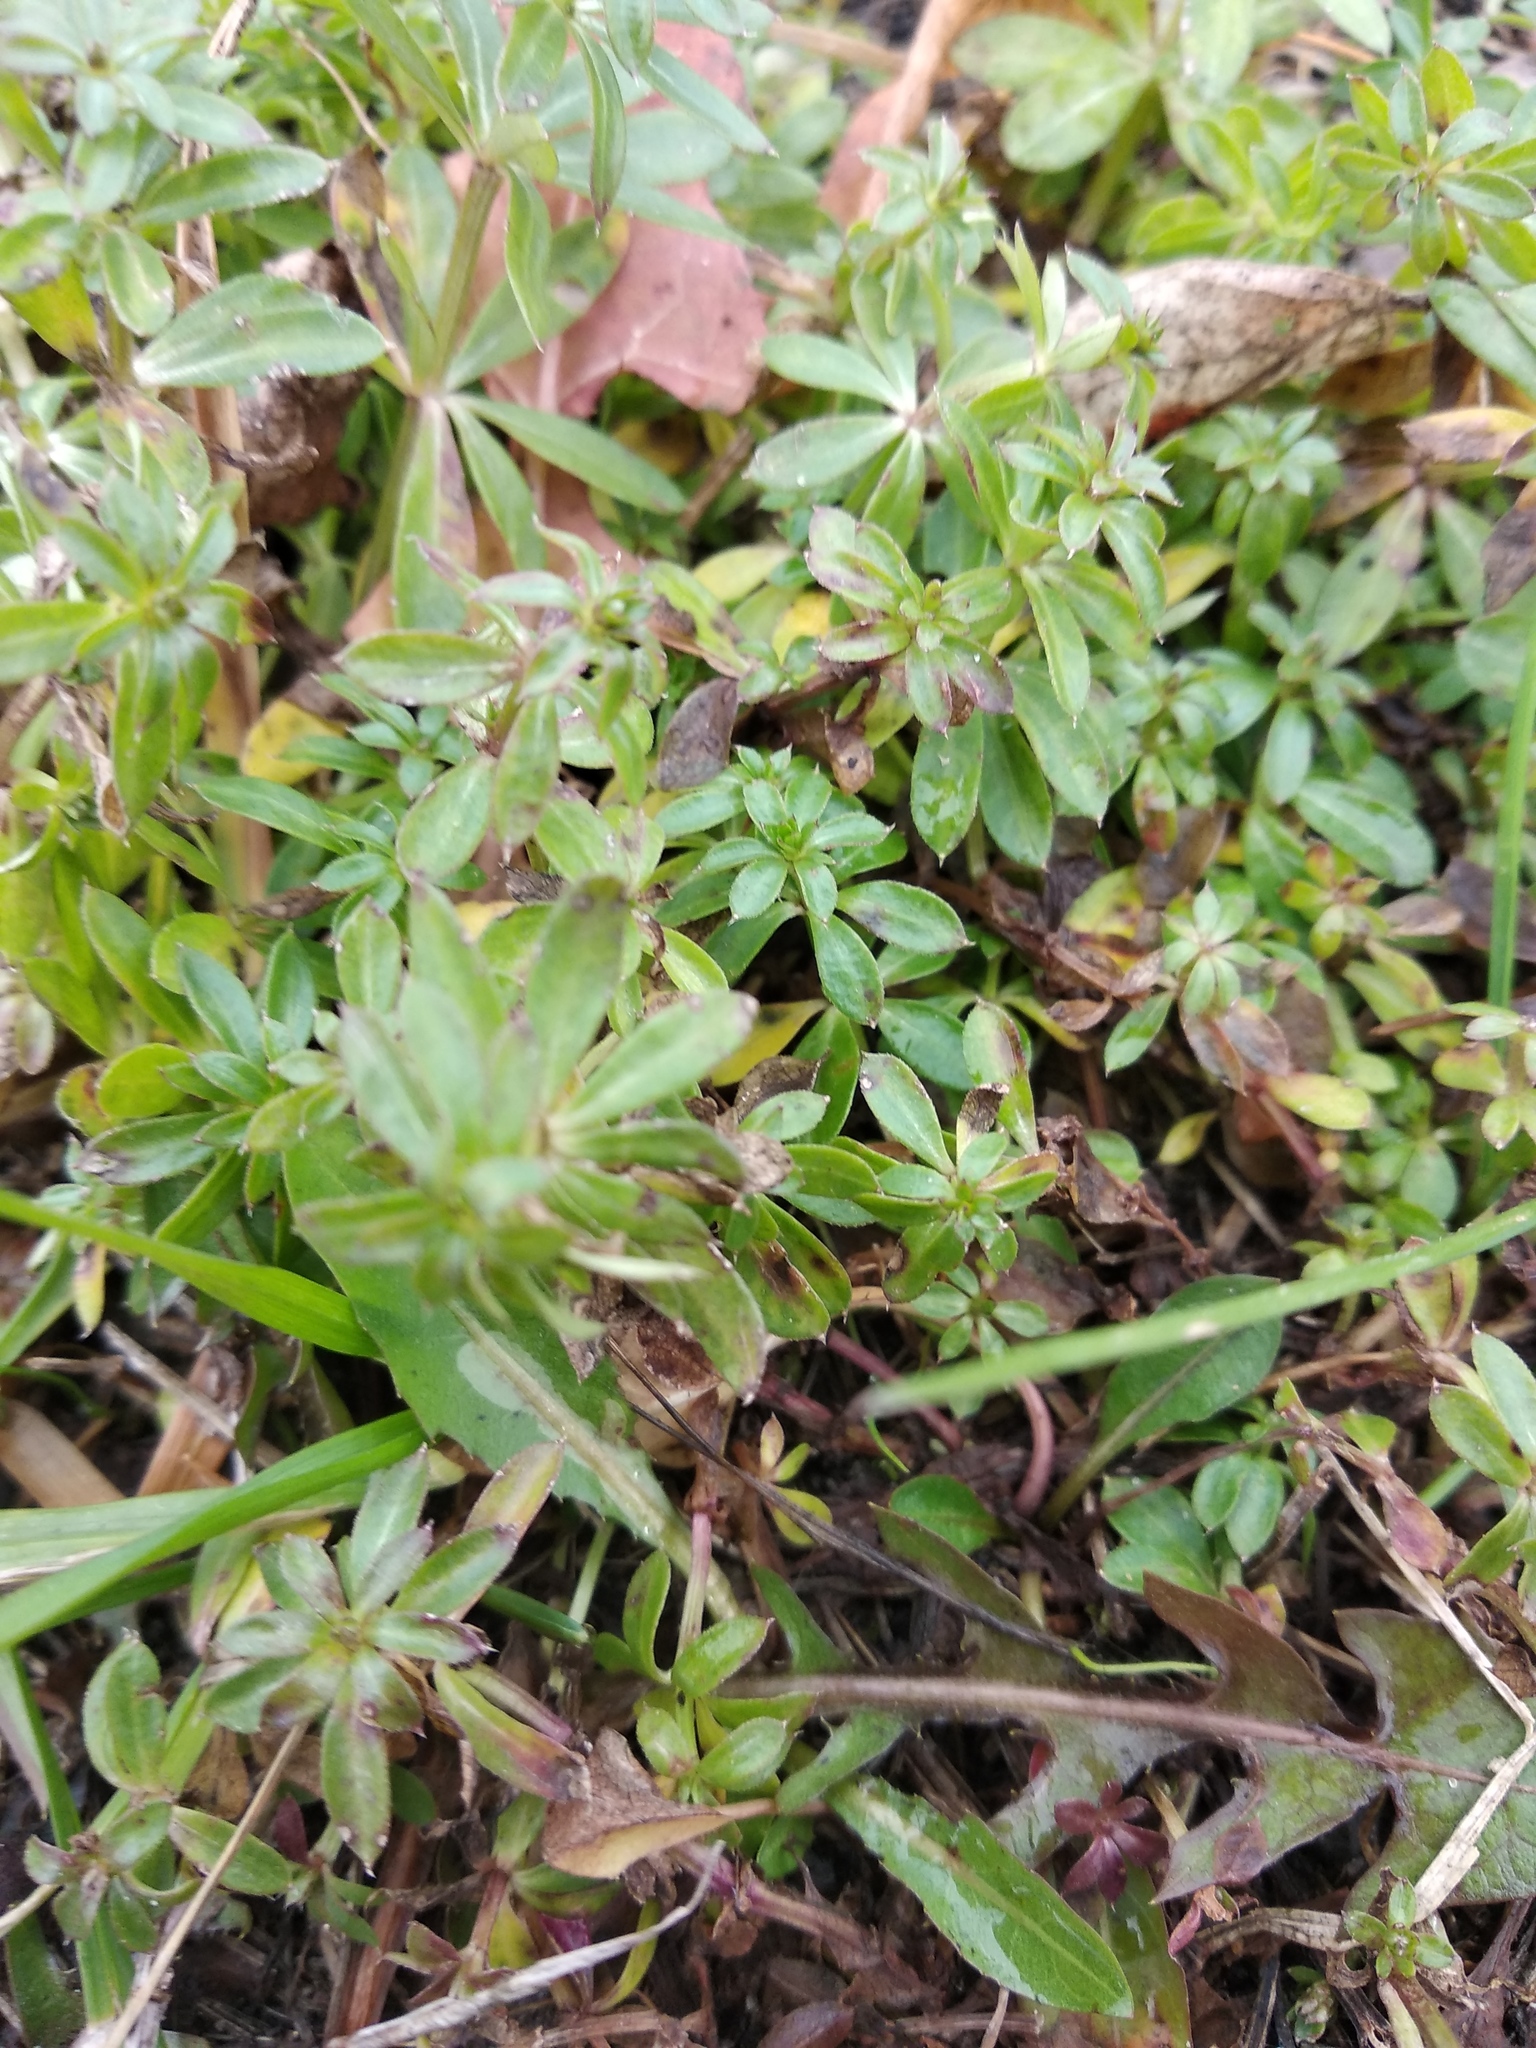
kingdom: Plantae
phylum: Tracheophyta
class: Magnoliopsida
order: Gentianales
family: Rubiaceae
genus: Galium
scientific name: Galium mollugo
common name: Hedge bedstraw
